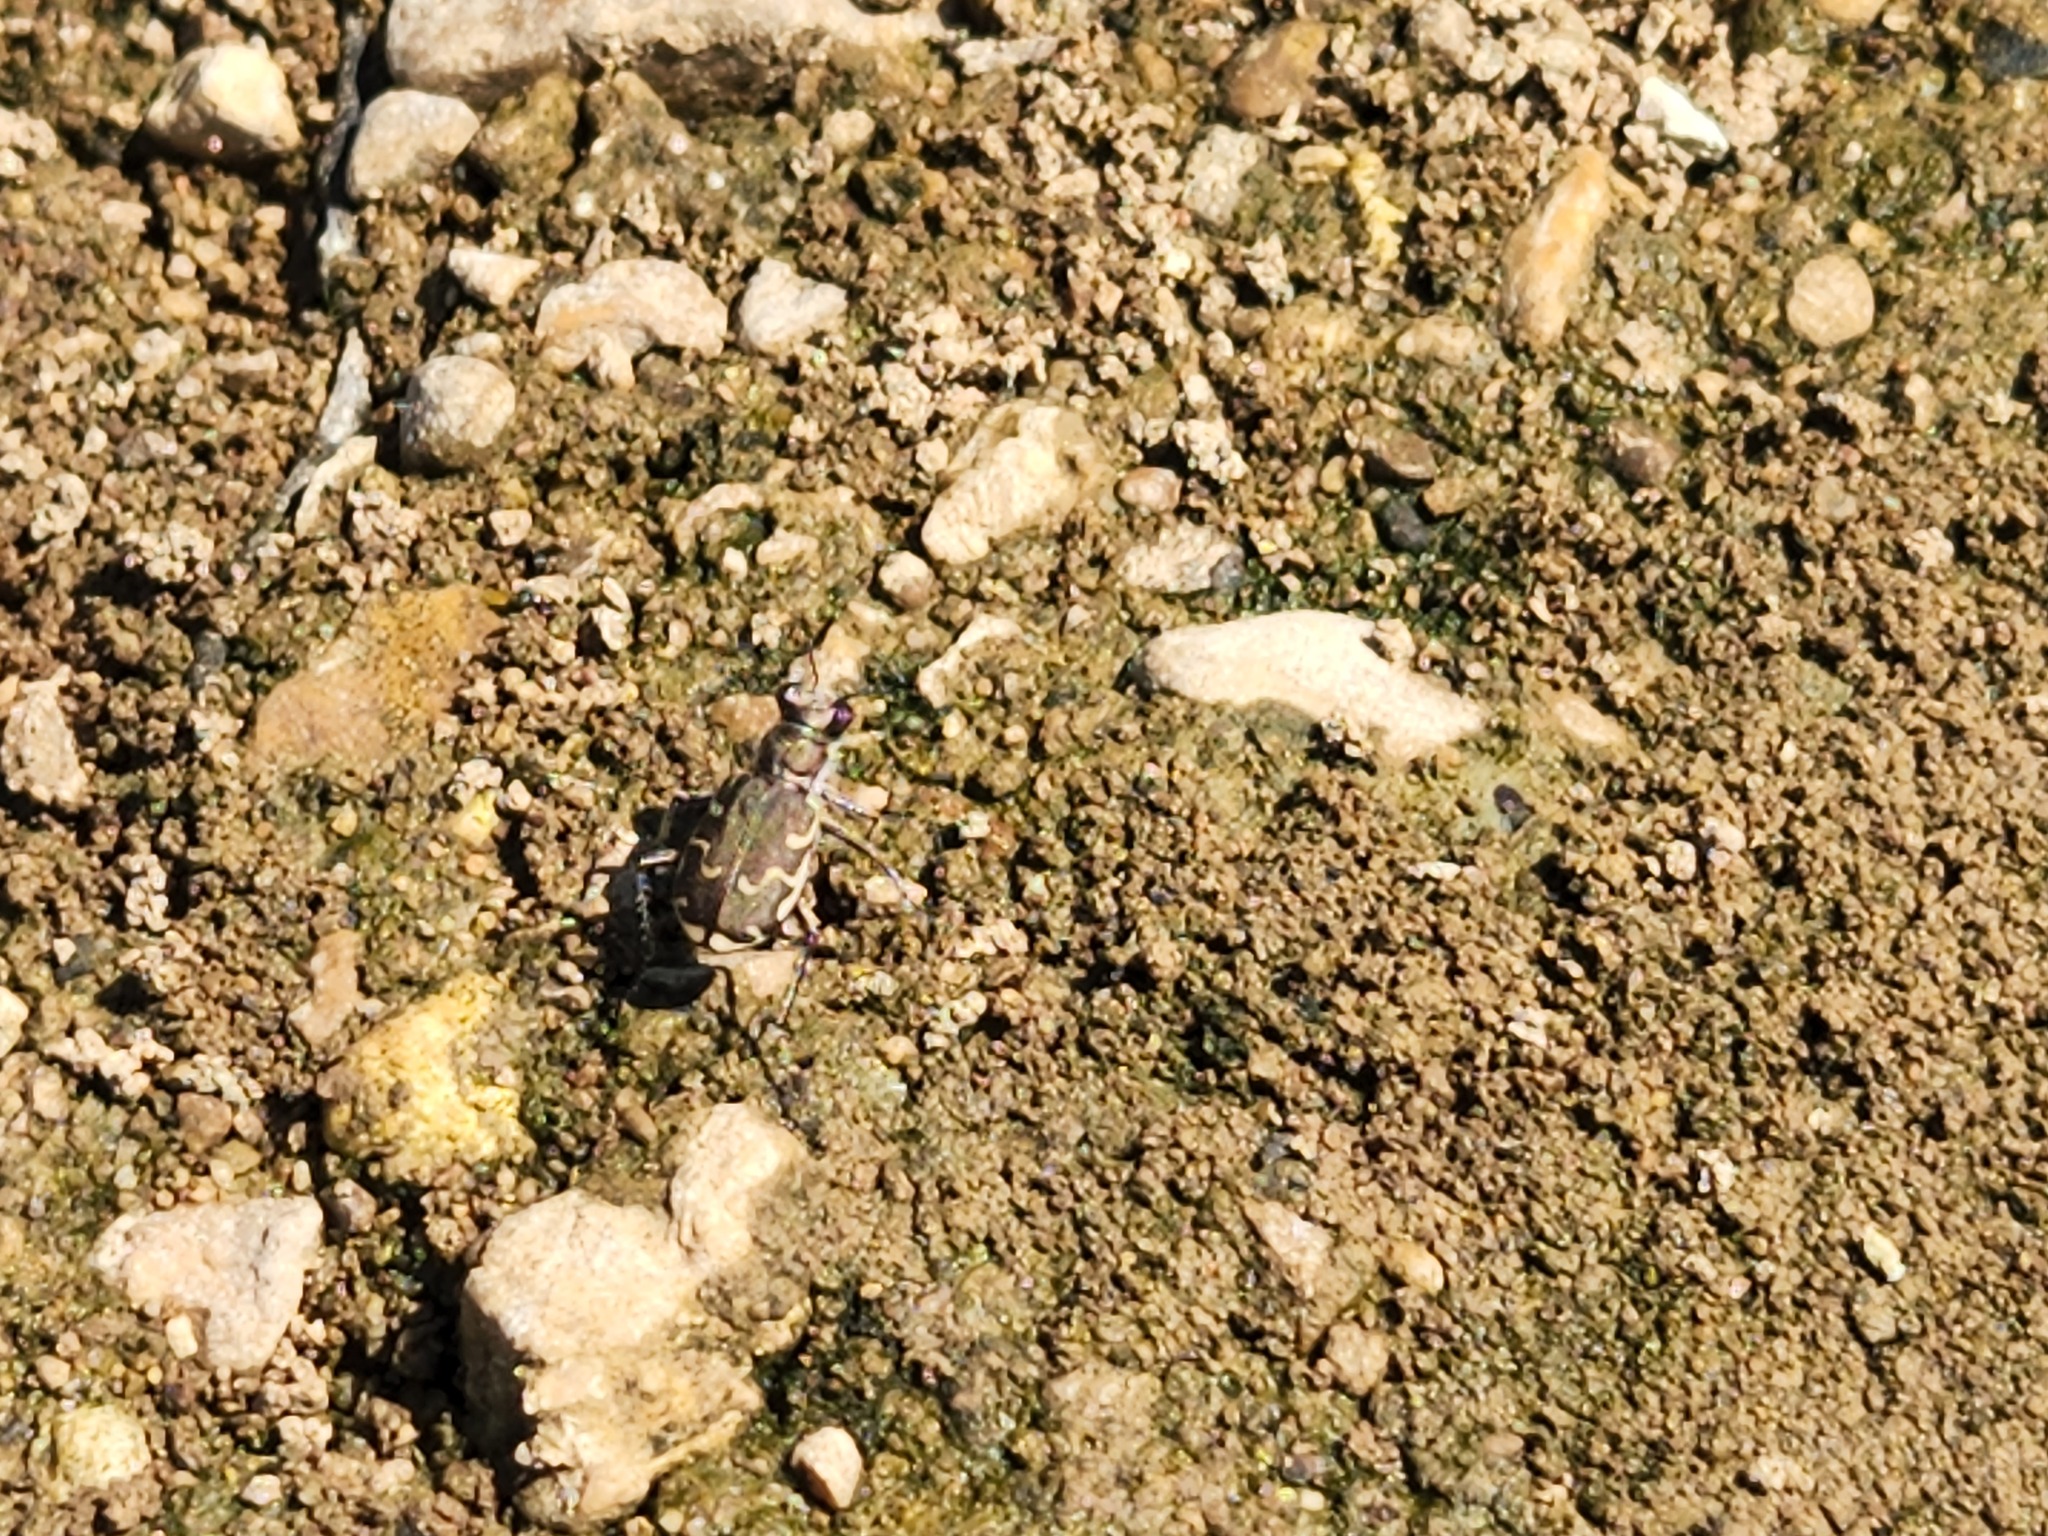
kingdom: Animalia
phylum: Arthropoda
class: Insecta
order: Coleoptera
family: Carabidae
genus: Cicindela
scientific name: Cicindela repanda
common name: Bronzed tiger beetle
